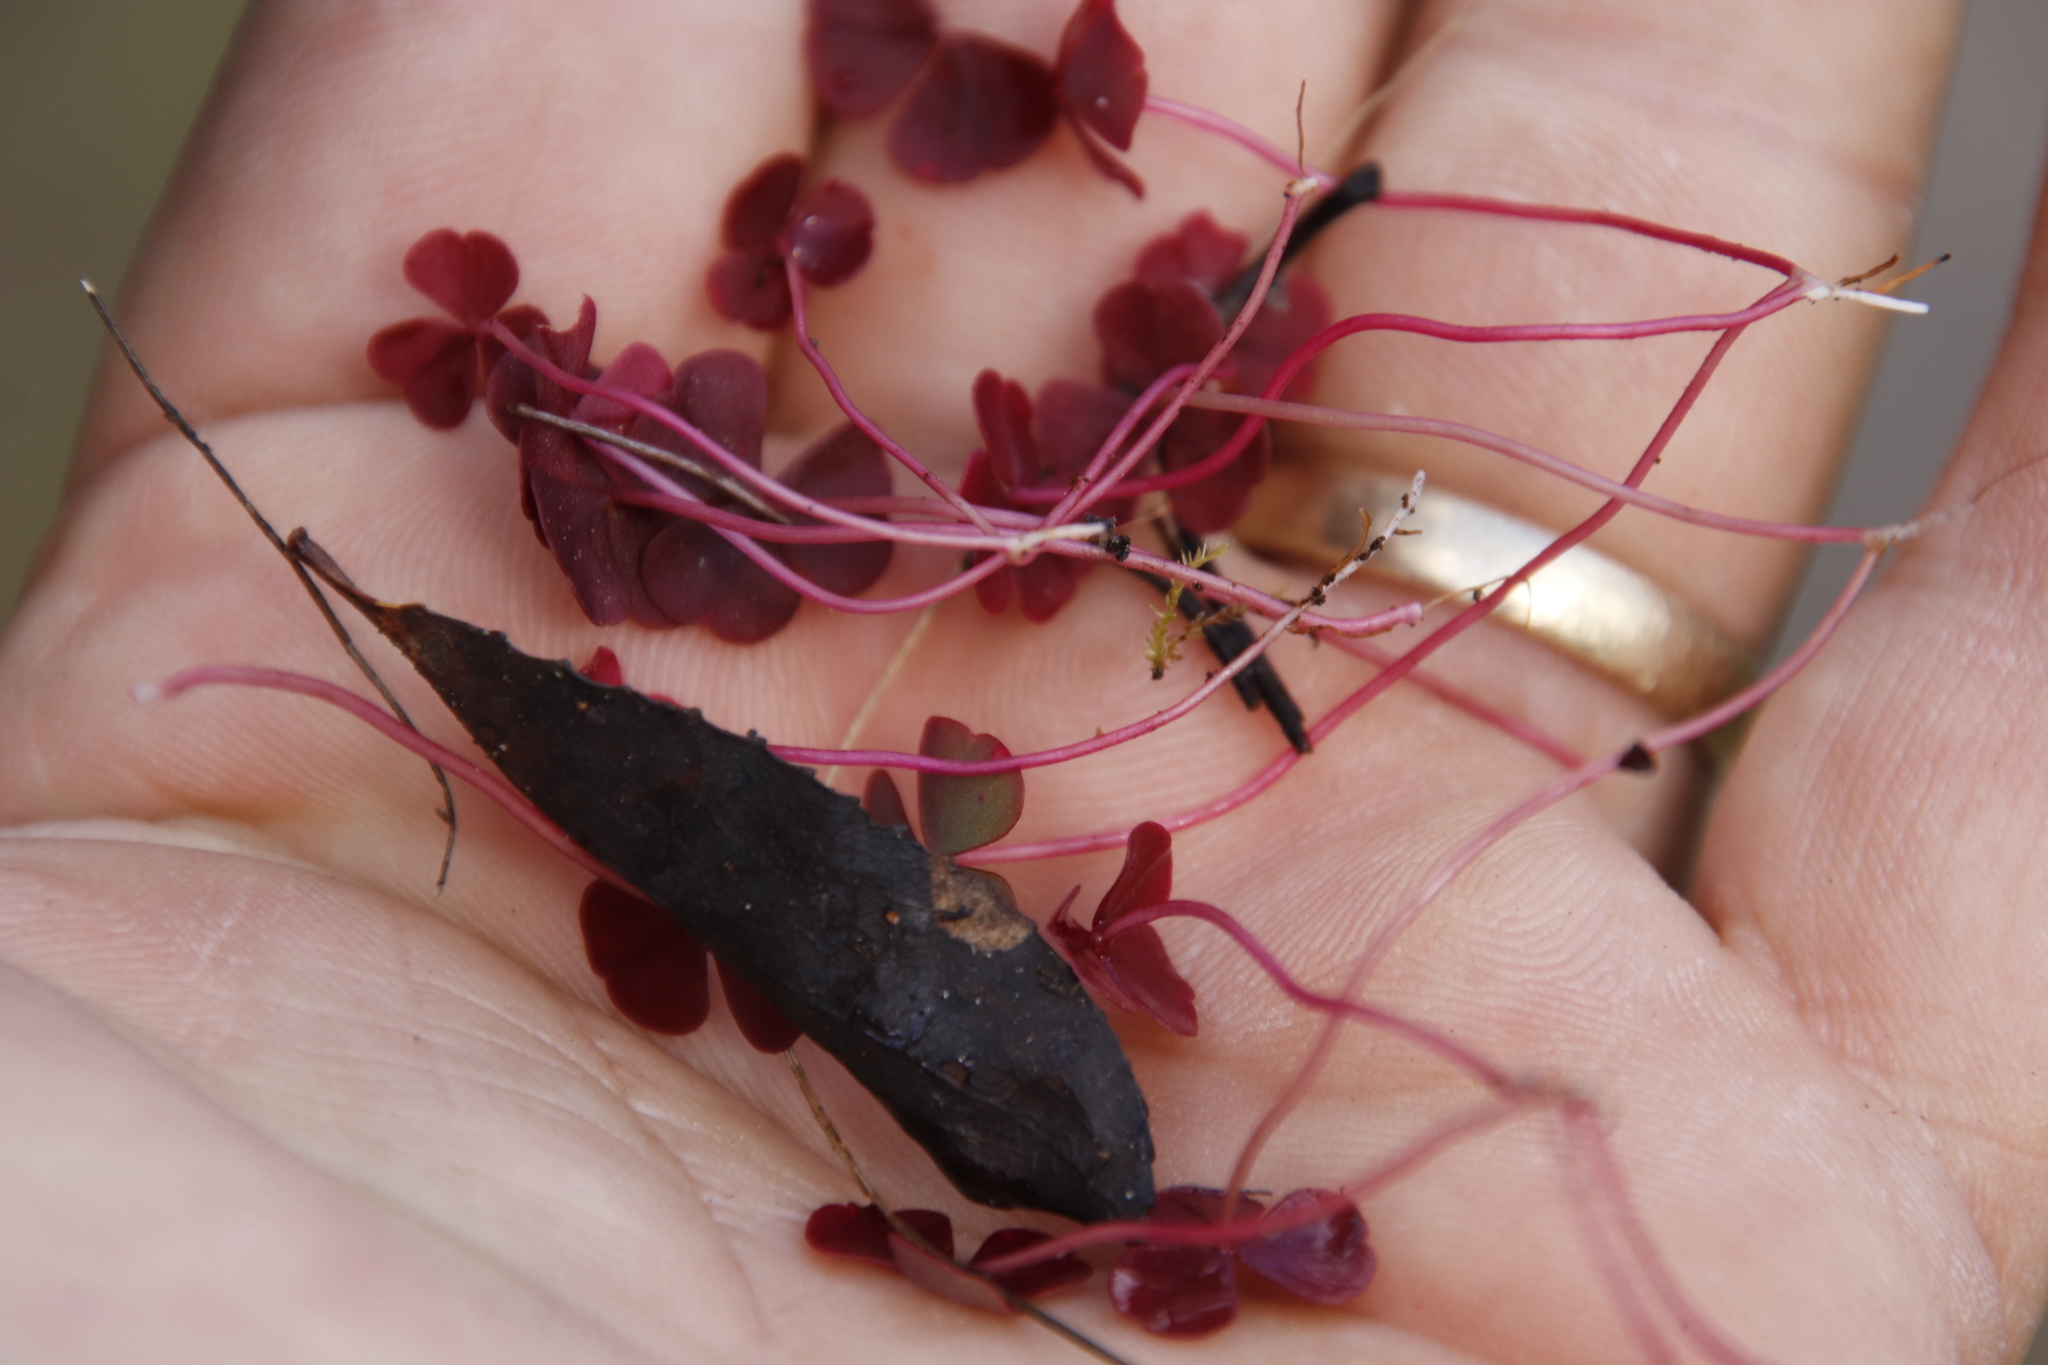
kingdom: Plantae
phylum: Tracheophyta
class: Magnoliopsida
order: Oxalidales
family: Oxalidaceae
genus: Oxalis
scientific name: Oxalis commutata
